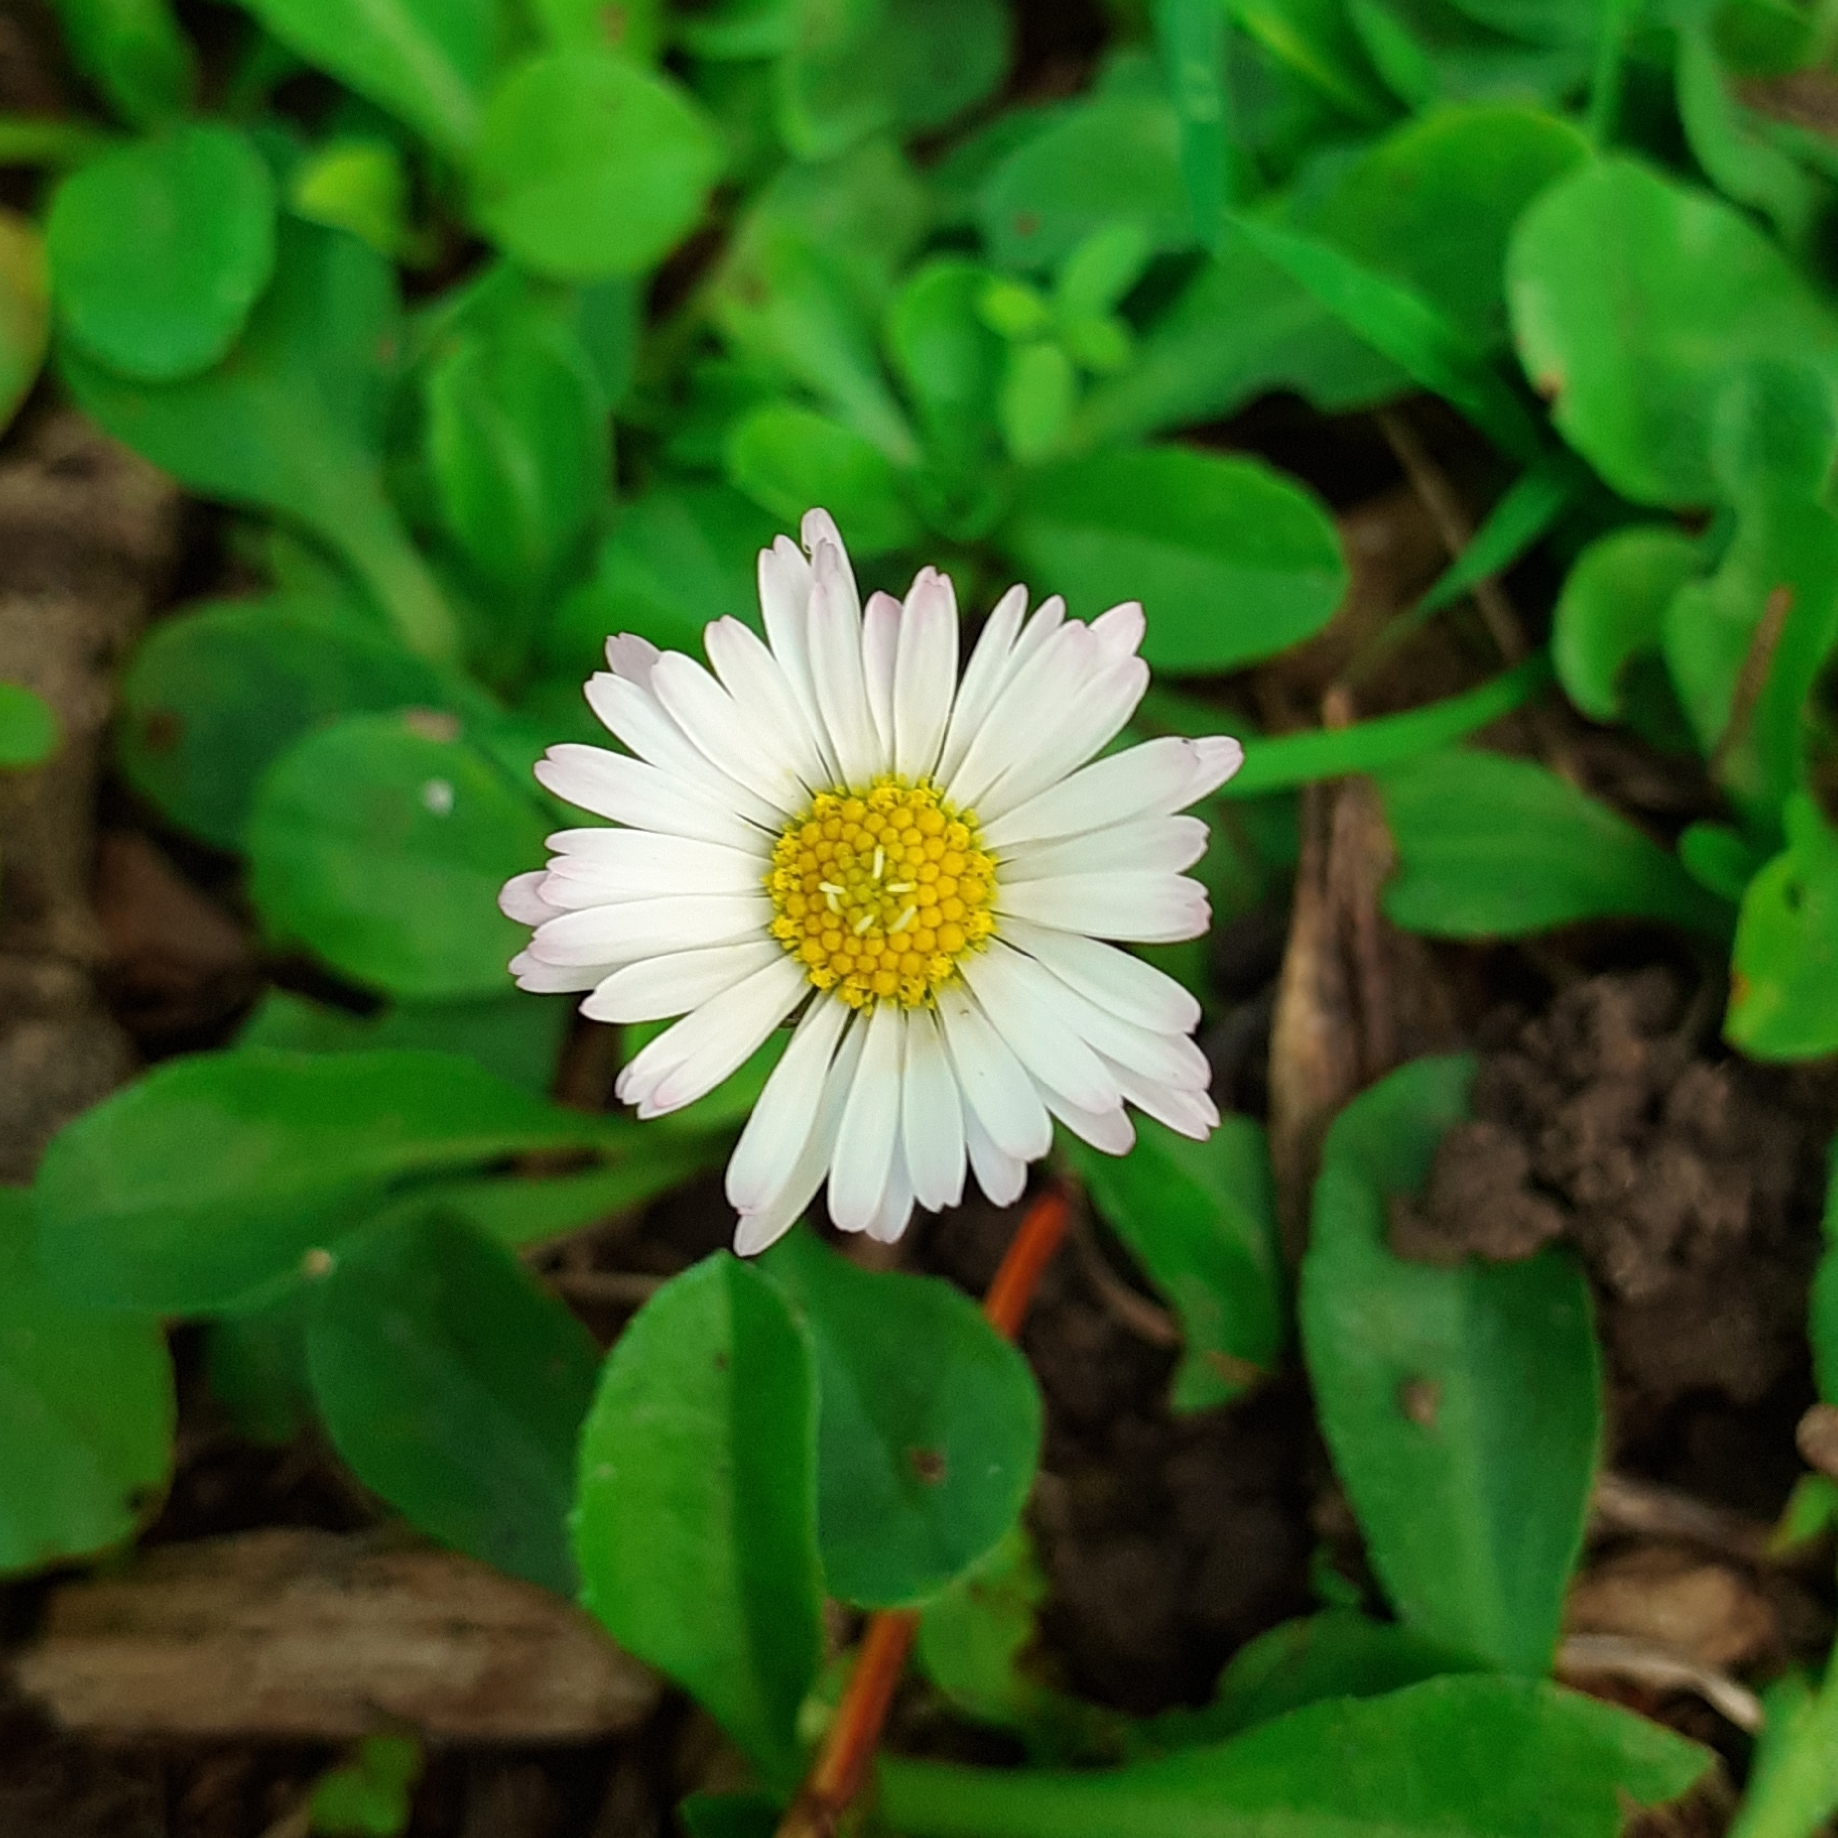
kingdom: Plantae
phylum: Tracheophyta
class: Magnoliopsida
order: Asterales
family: Asteraceae
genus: Bellis
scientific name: Bellis perennis
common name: Lawndaisy
